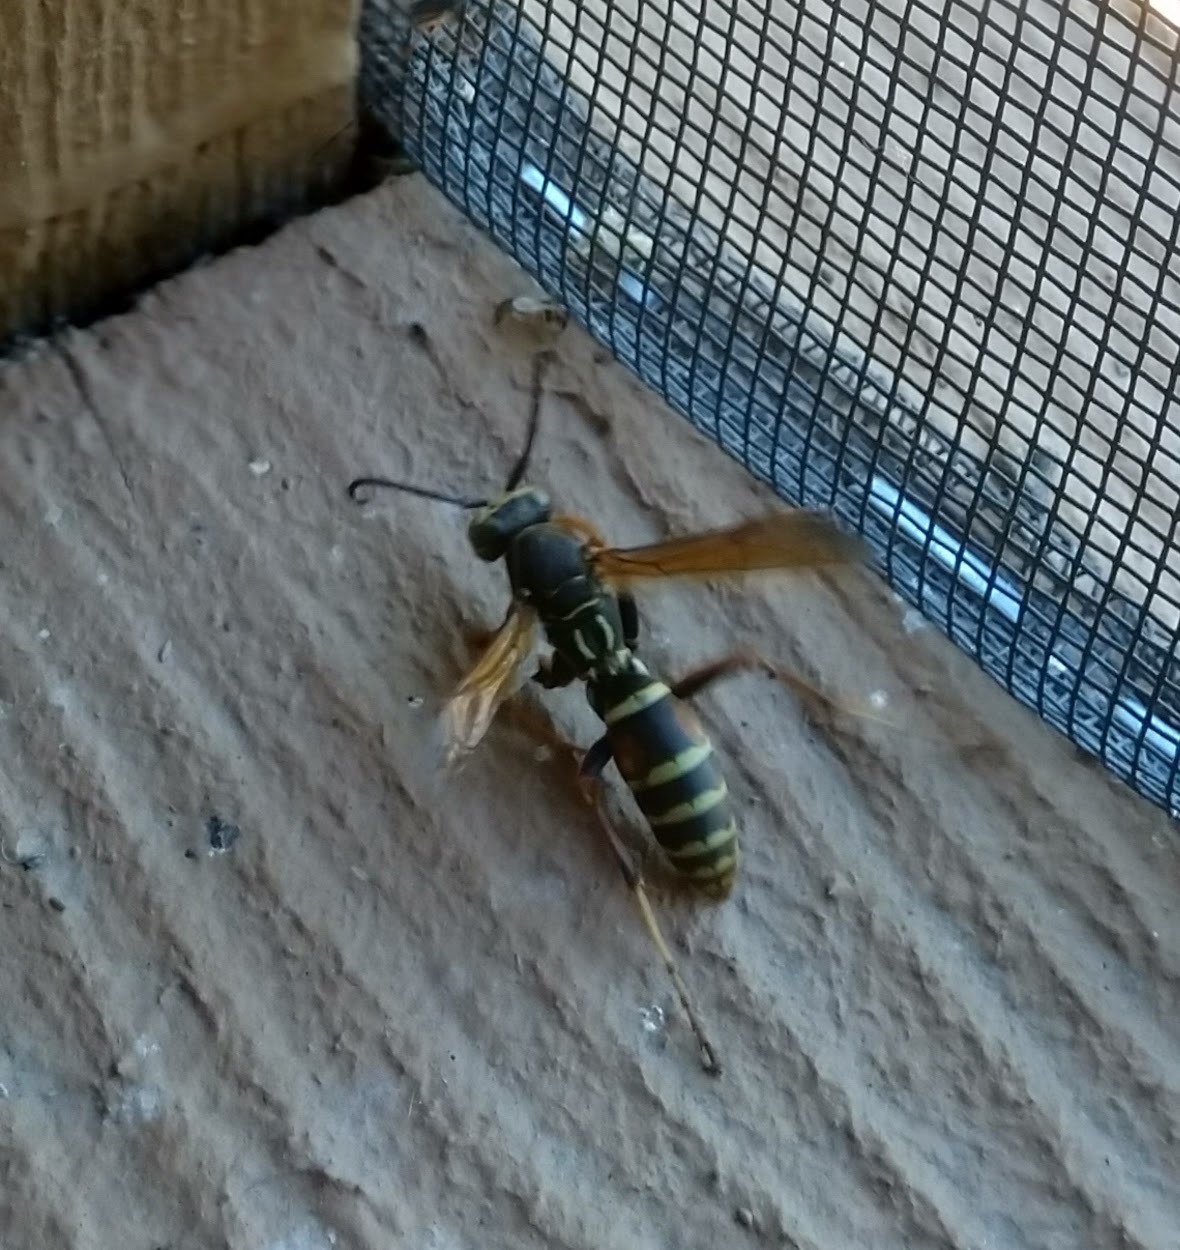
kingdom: Animalia
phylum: Arthropoda
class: Insecta
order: Hymenoptera
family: Eumenidae
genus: Polistes
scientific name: Polistes fuscatus
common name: Dark paper wasp
